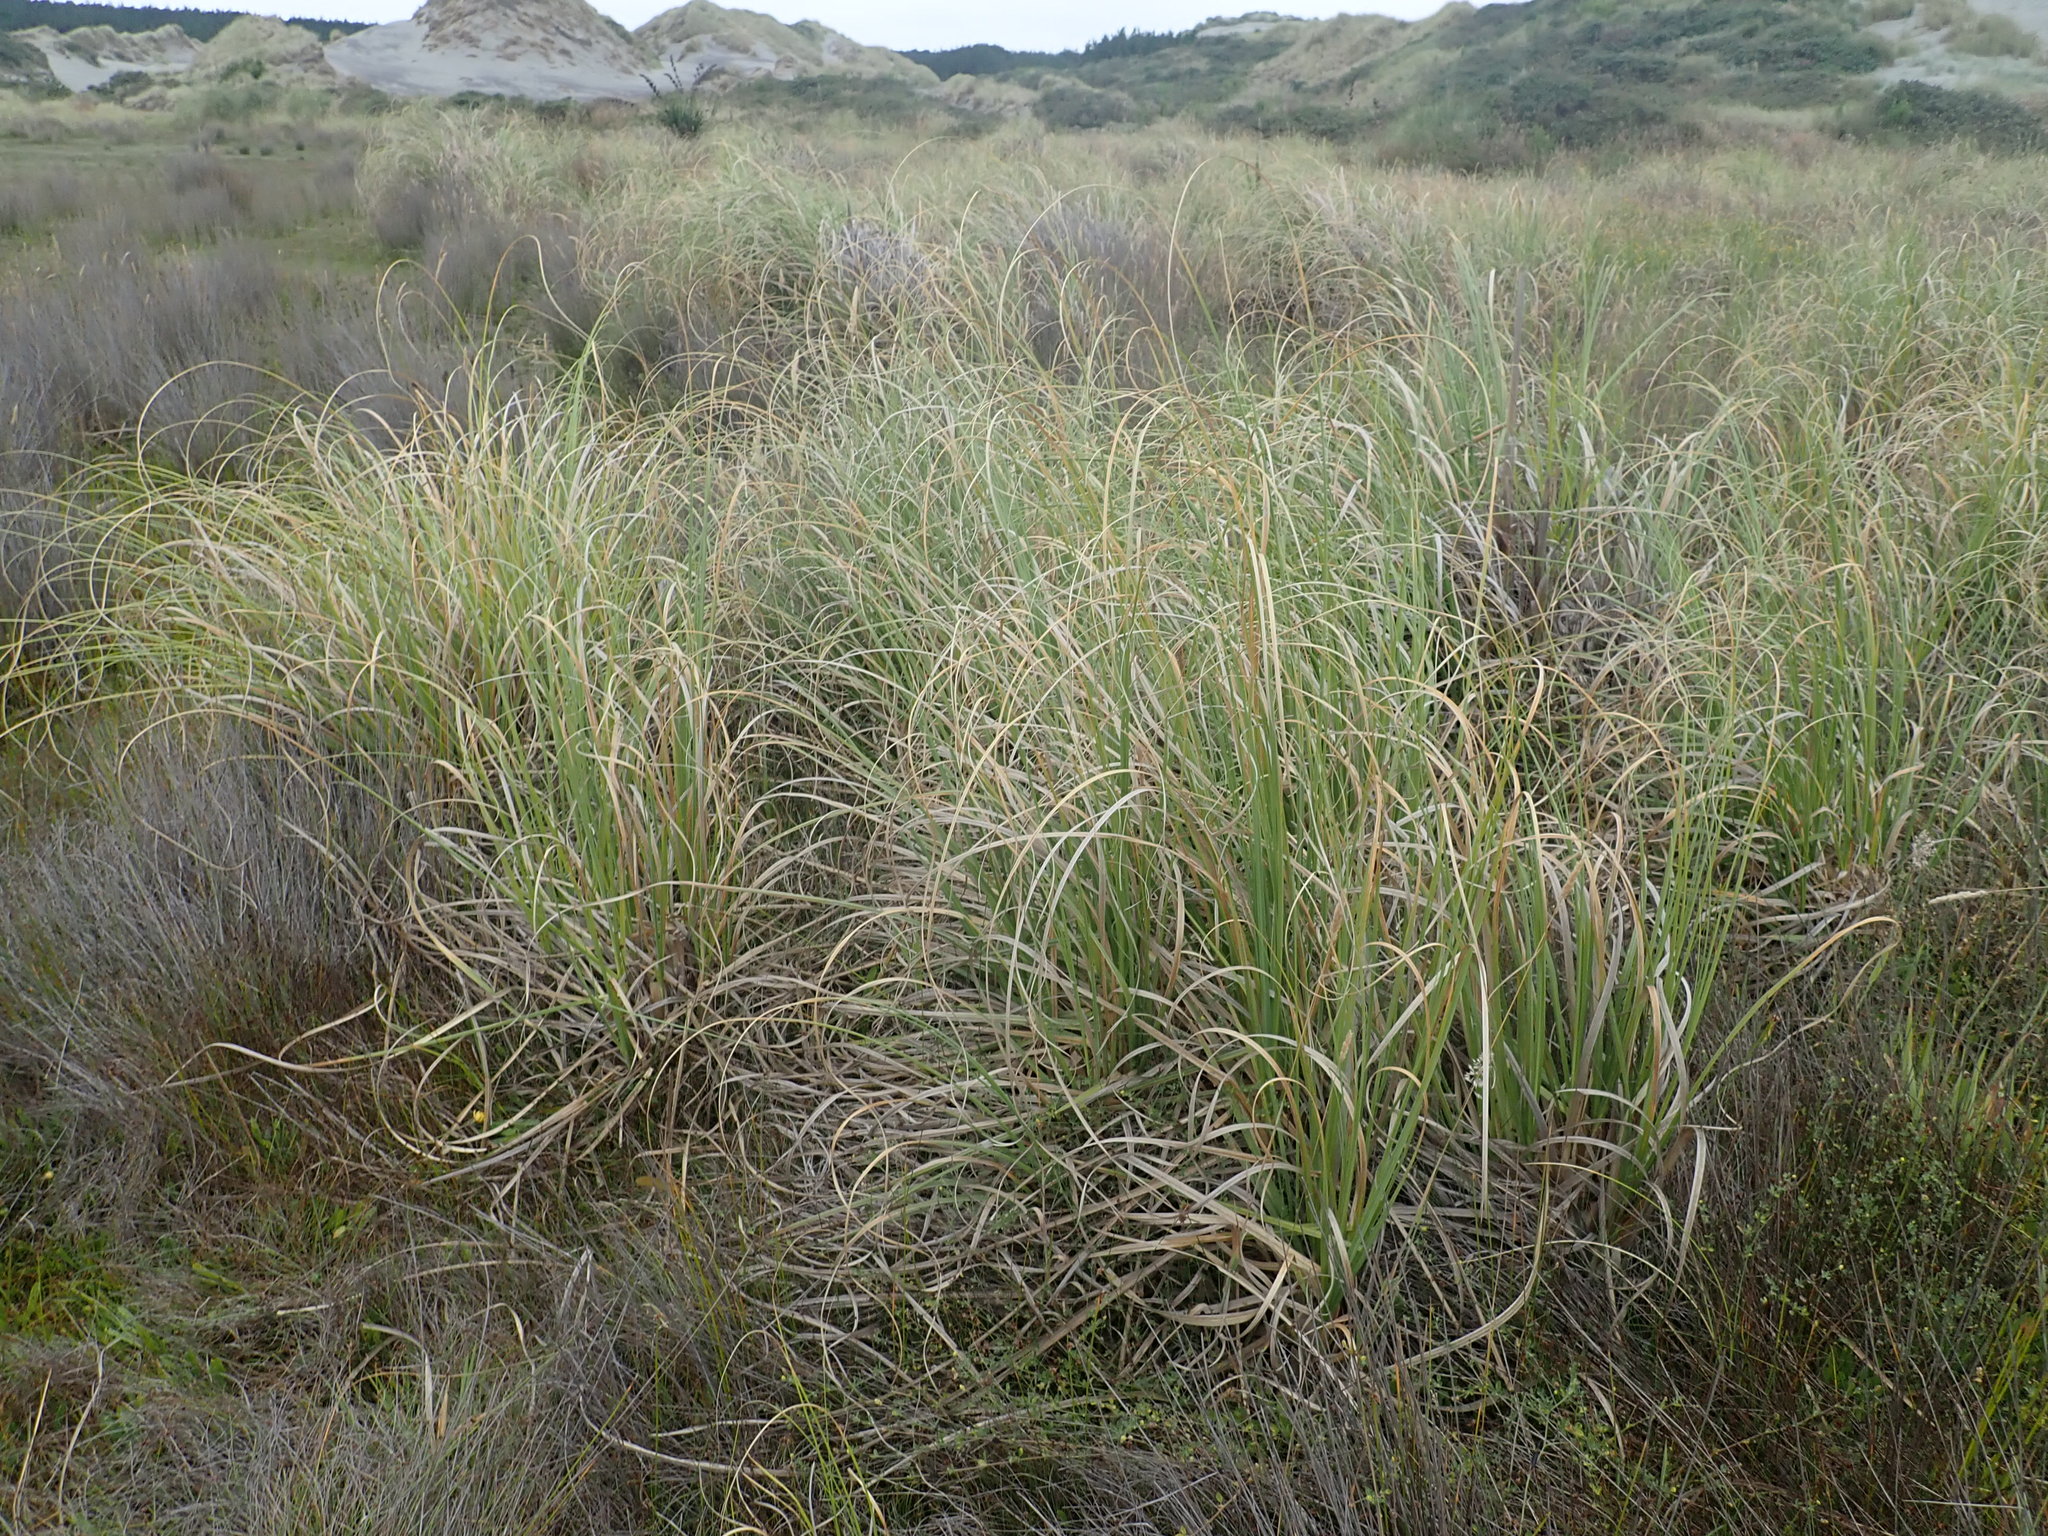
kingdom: Plantae
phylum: Tracheophyta
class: Liliopsida
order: Poales
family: Poaceae
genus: Cortaderia
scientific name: Cortaderia selloana
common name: Uruguayan pampas grass
